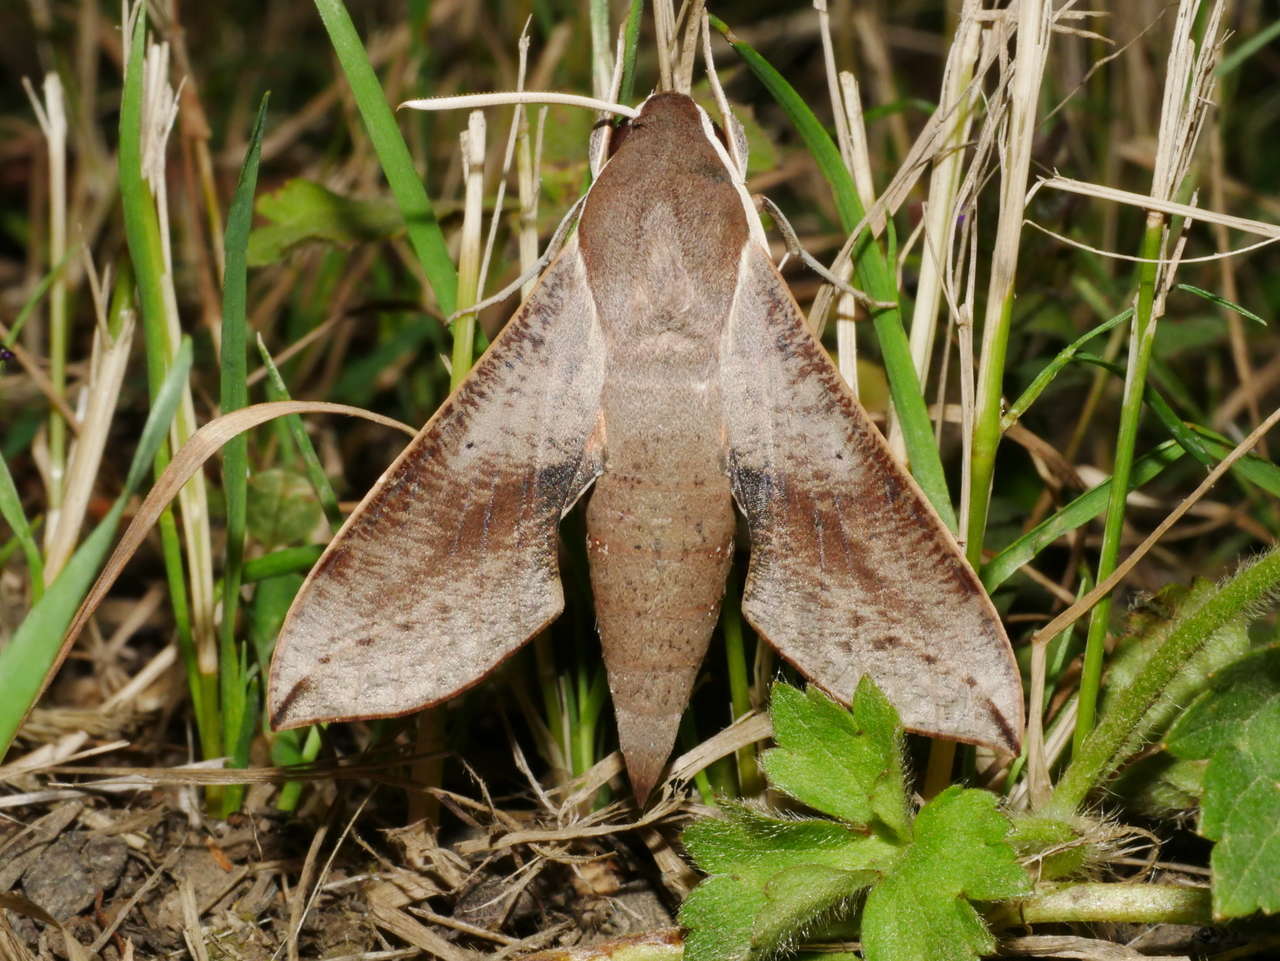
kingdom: Animalia
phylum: Arthropoda
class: Insecta
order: Lepidoptera
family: Sphingidae
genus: Hippotion
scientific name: Hippotion scrofa
